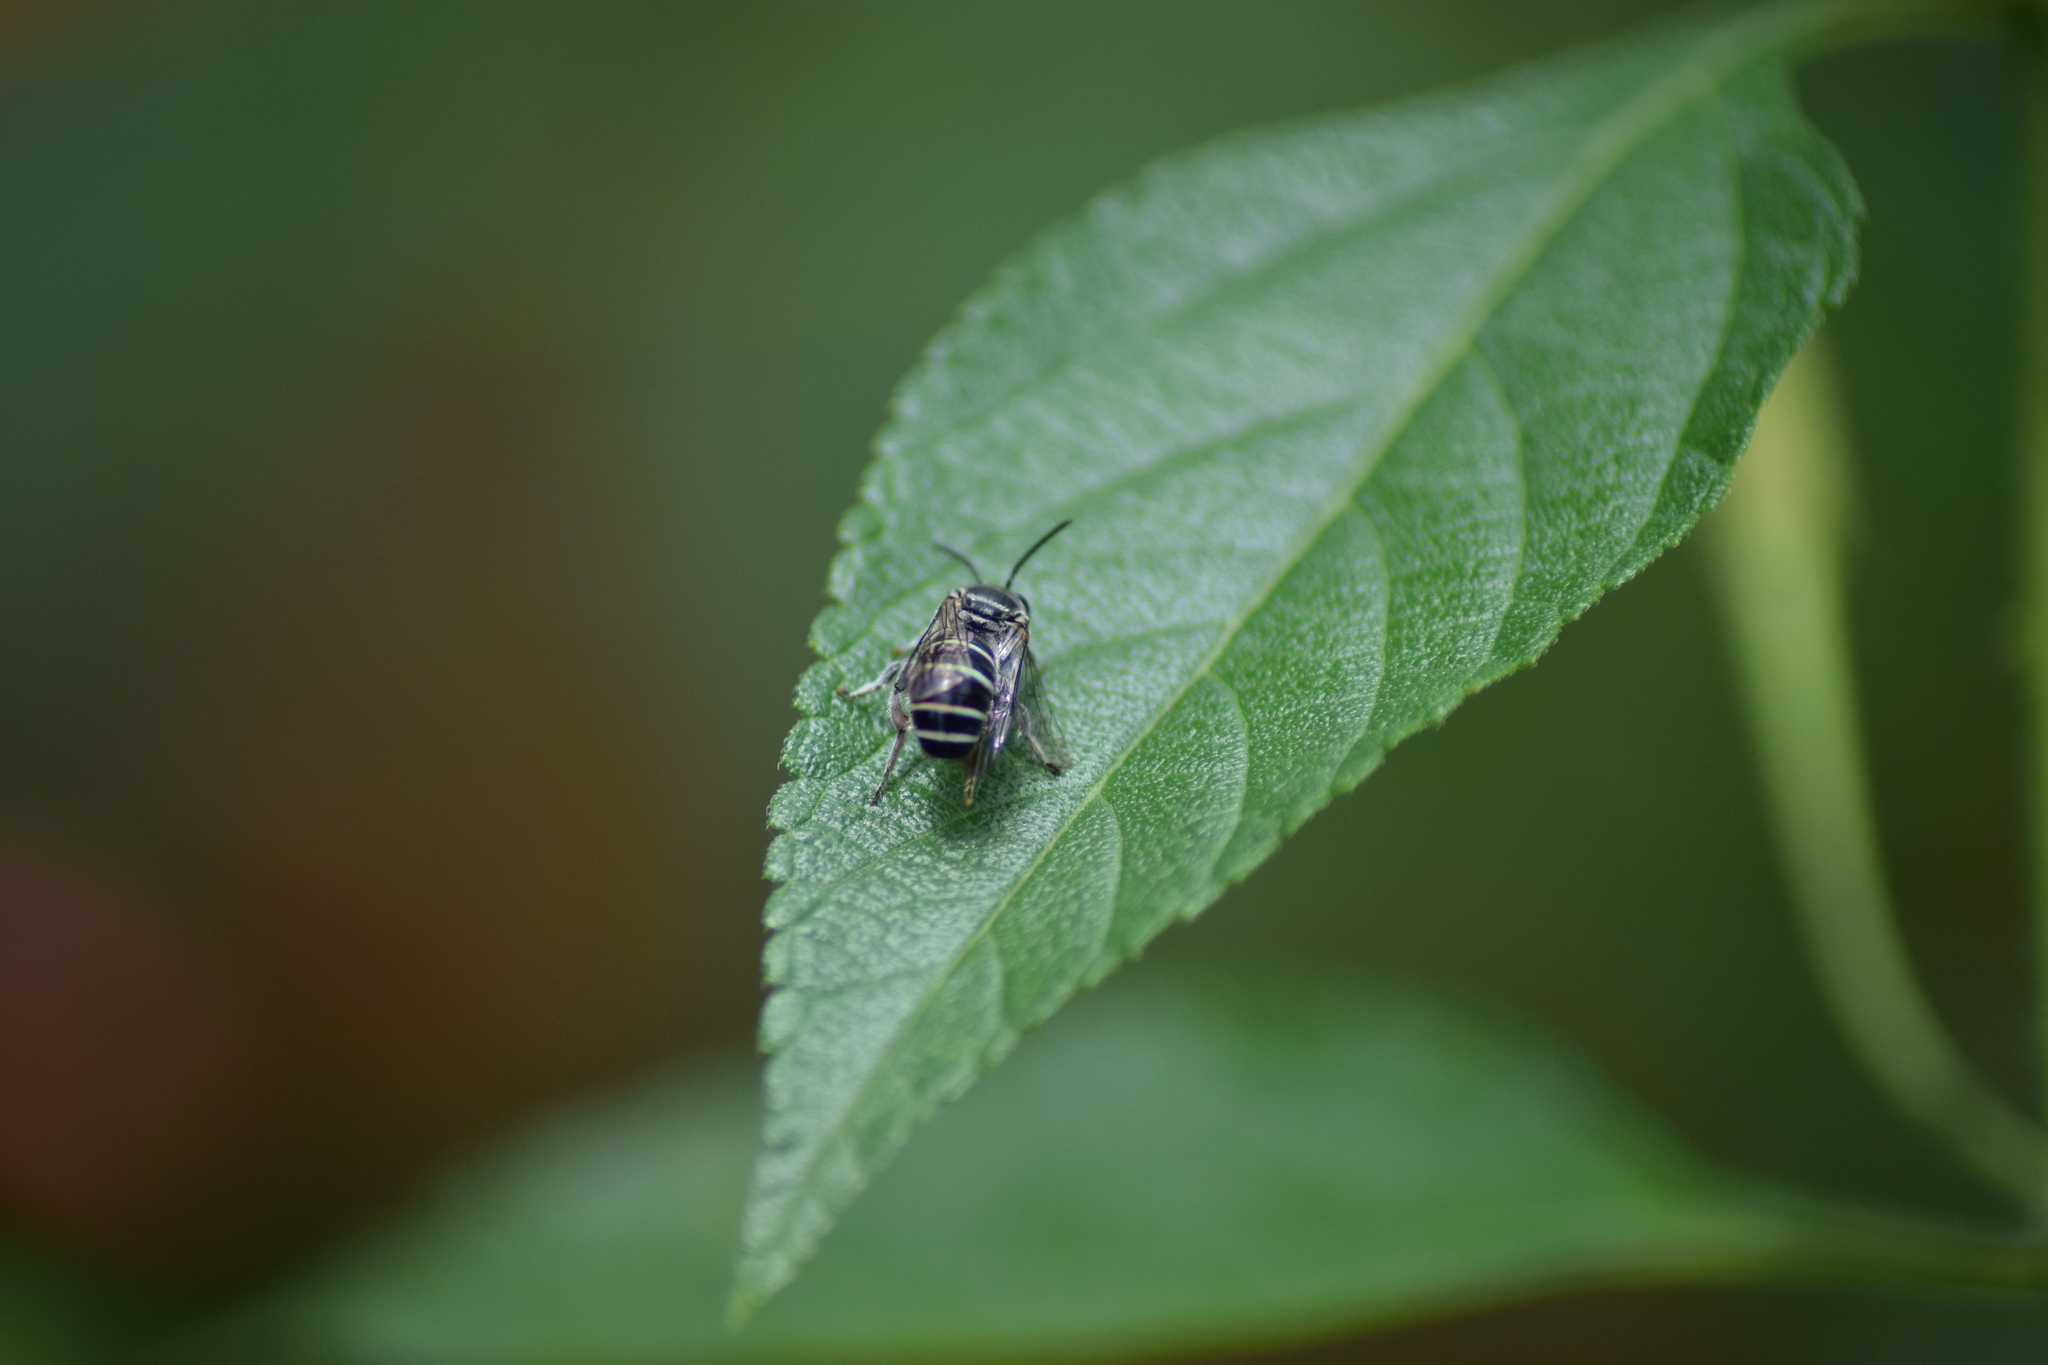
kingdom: Animalia
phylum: Arthropoda
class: Insecta
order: Hymenoptera
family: Halictidae
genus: Nomia
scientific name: Nomia westwoodi
